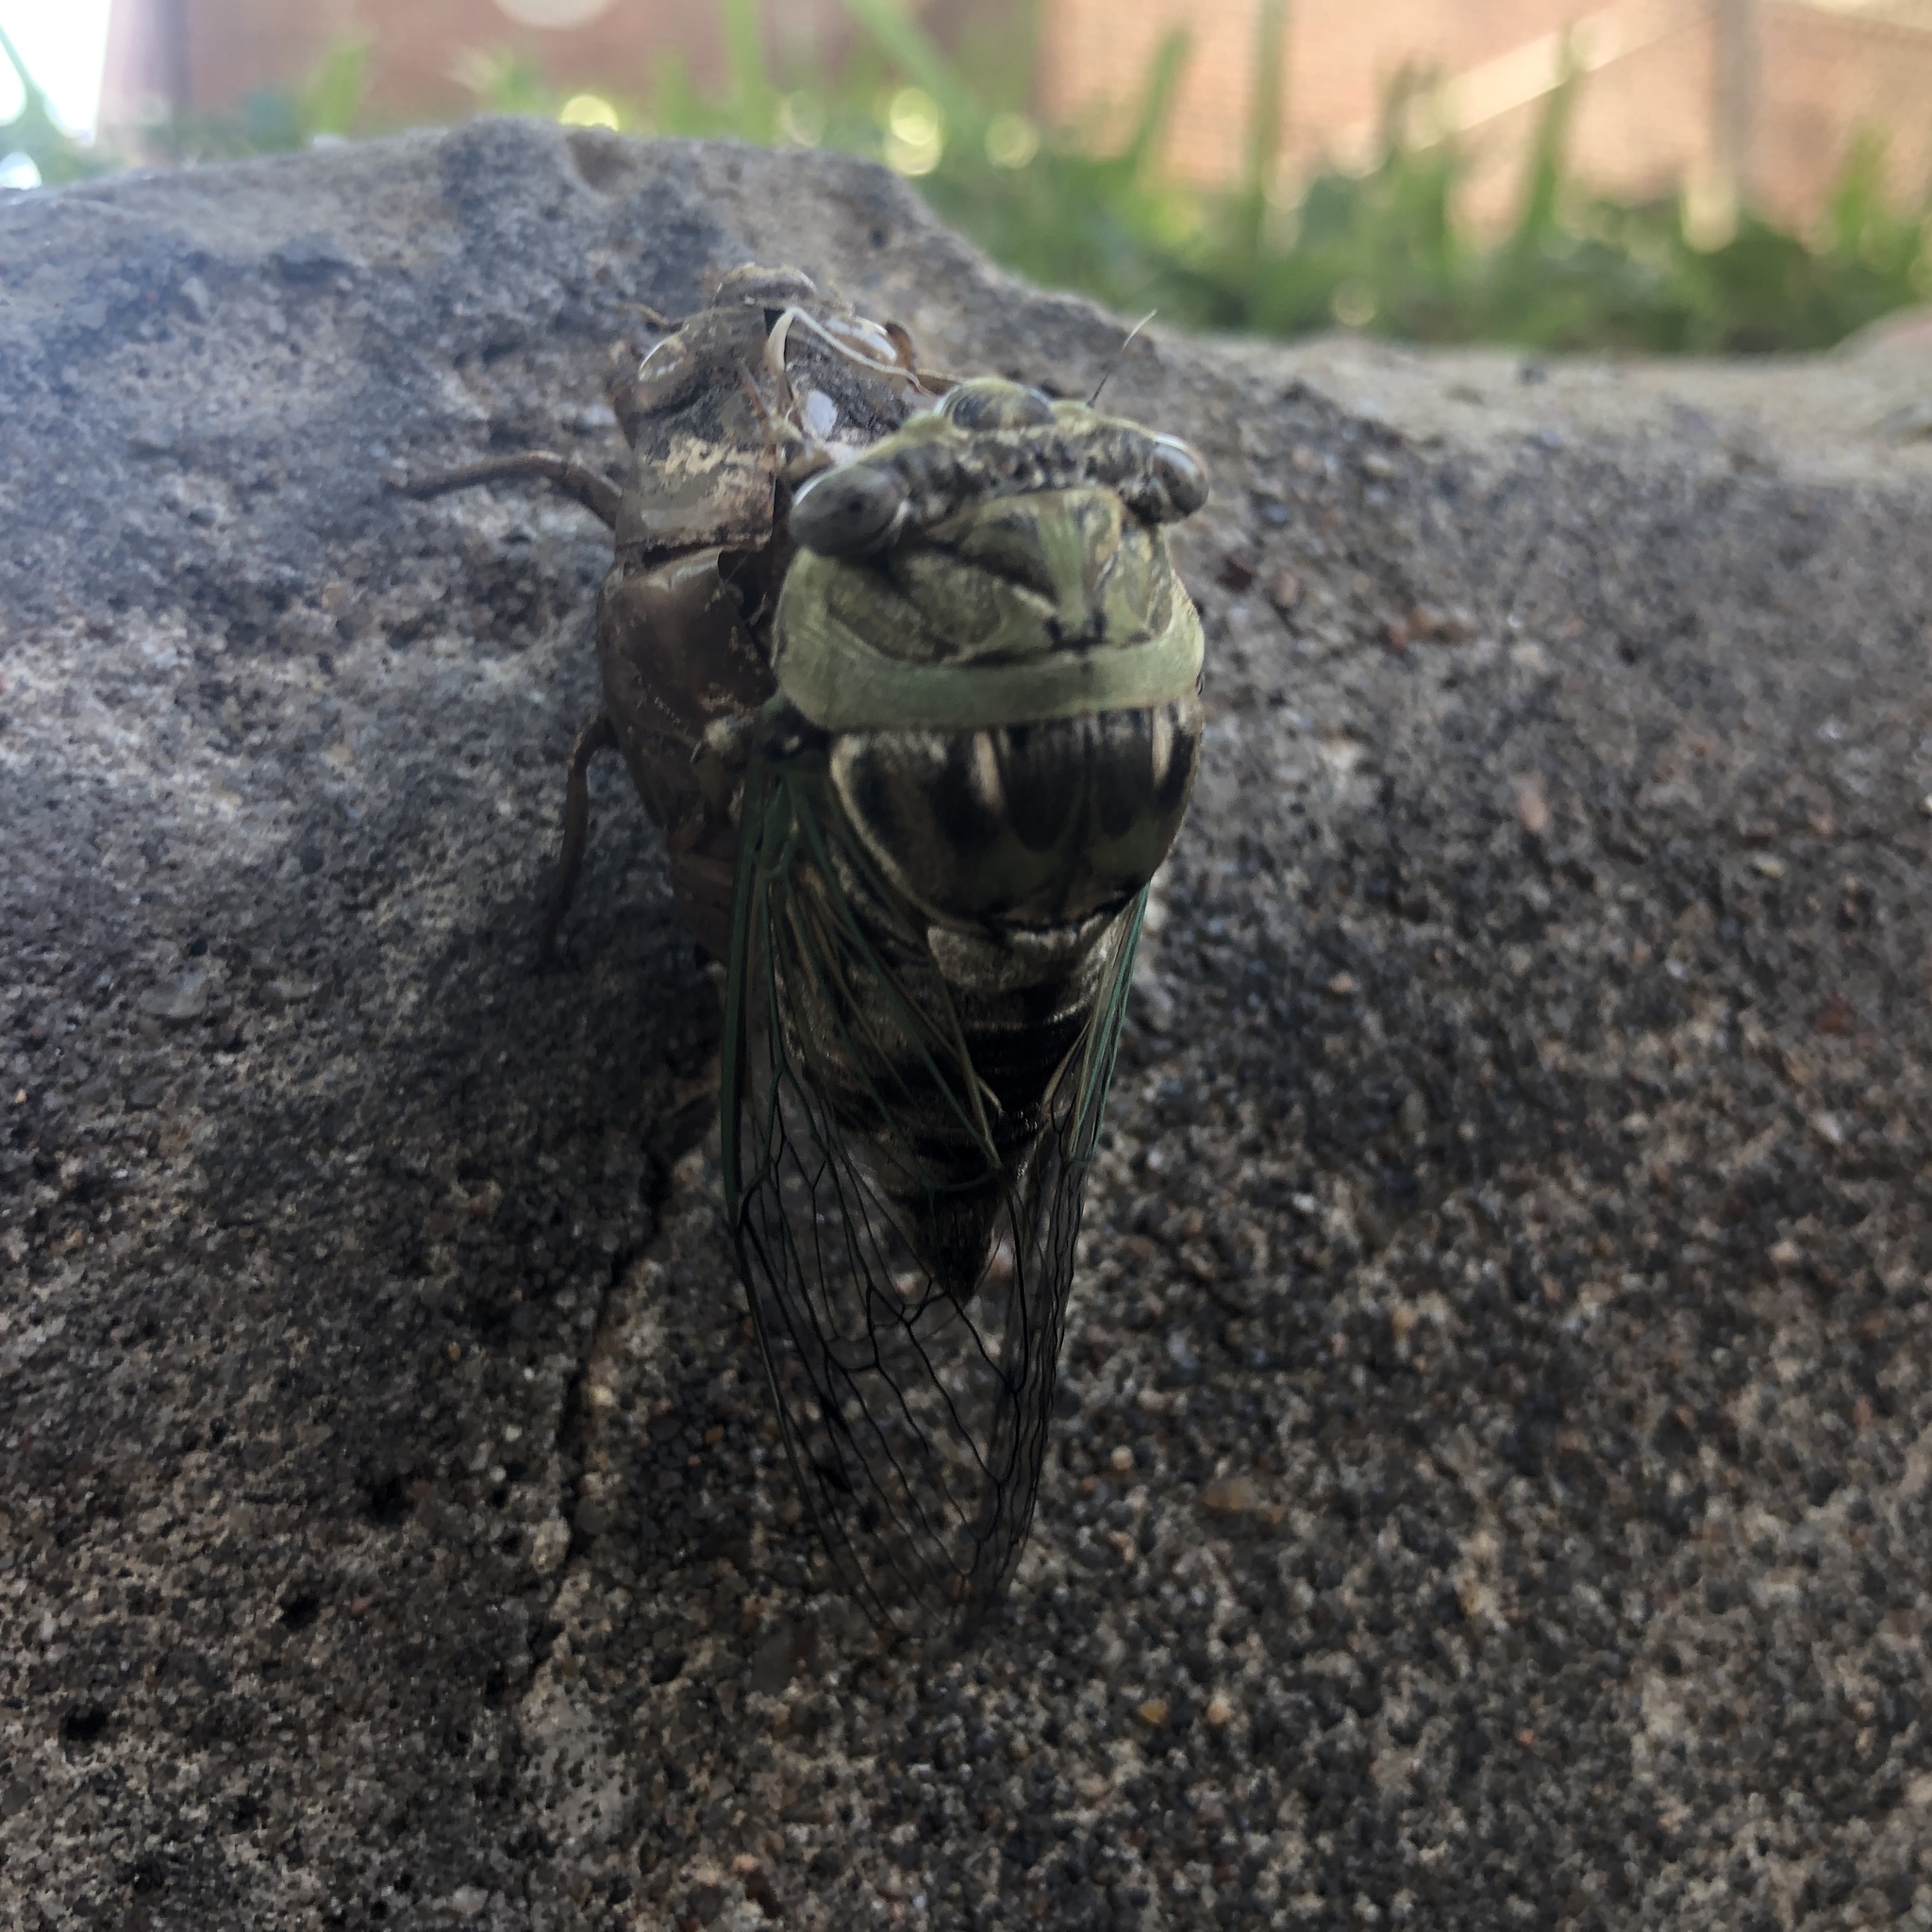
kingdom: Animalia
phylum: Arthropoda
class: Insecta
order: Hemiptera
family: Cicadidae
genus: Megatibicen
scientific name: Megatibicen resh
